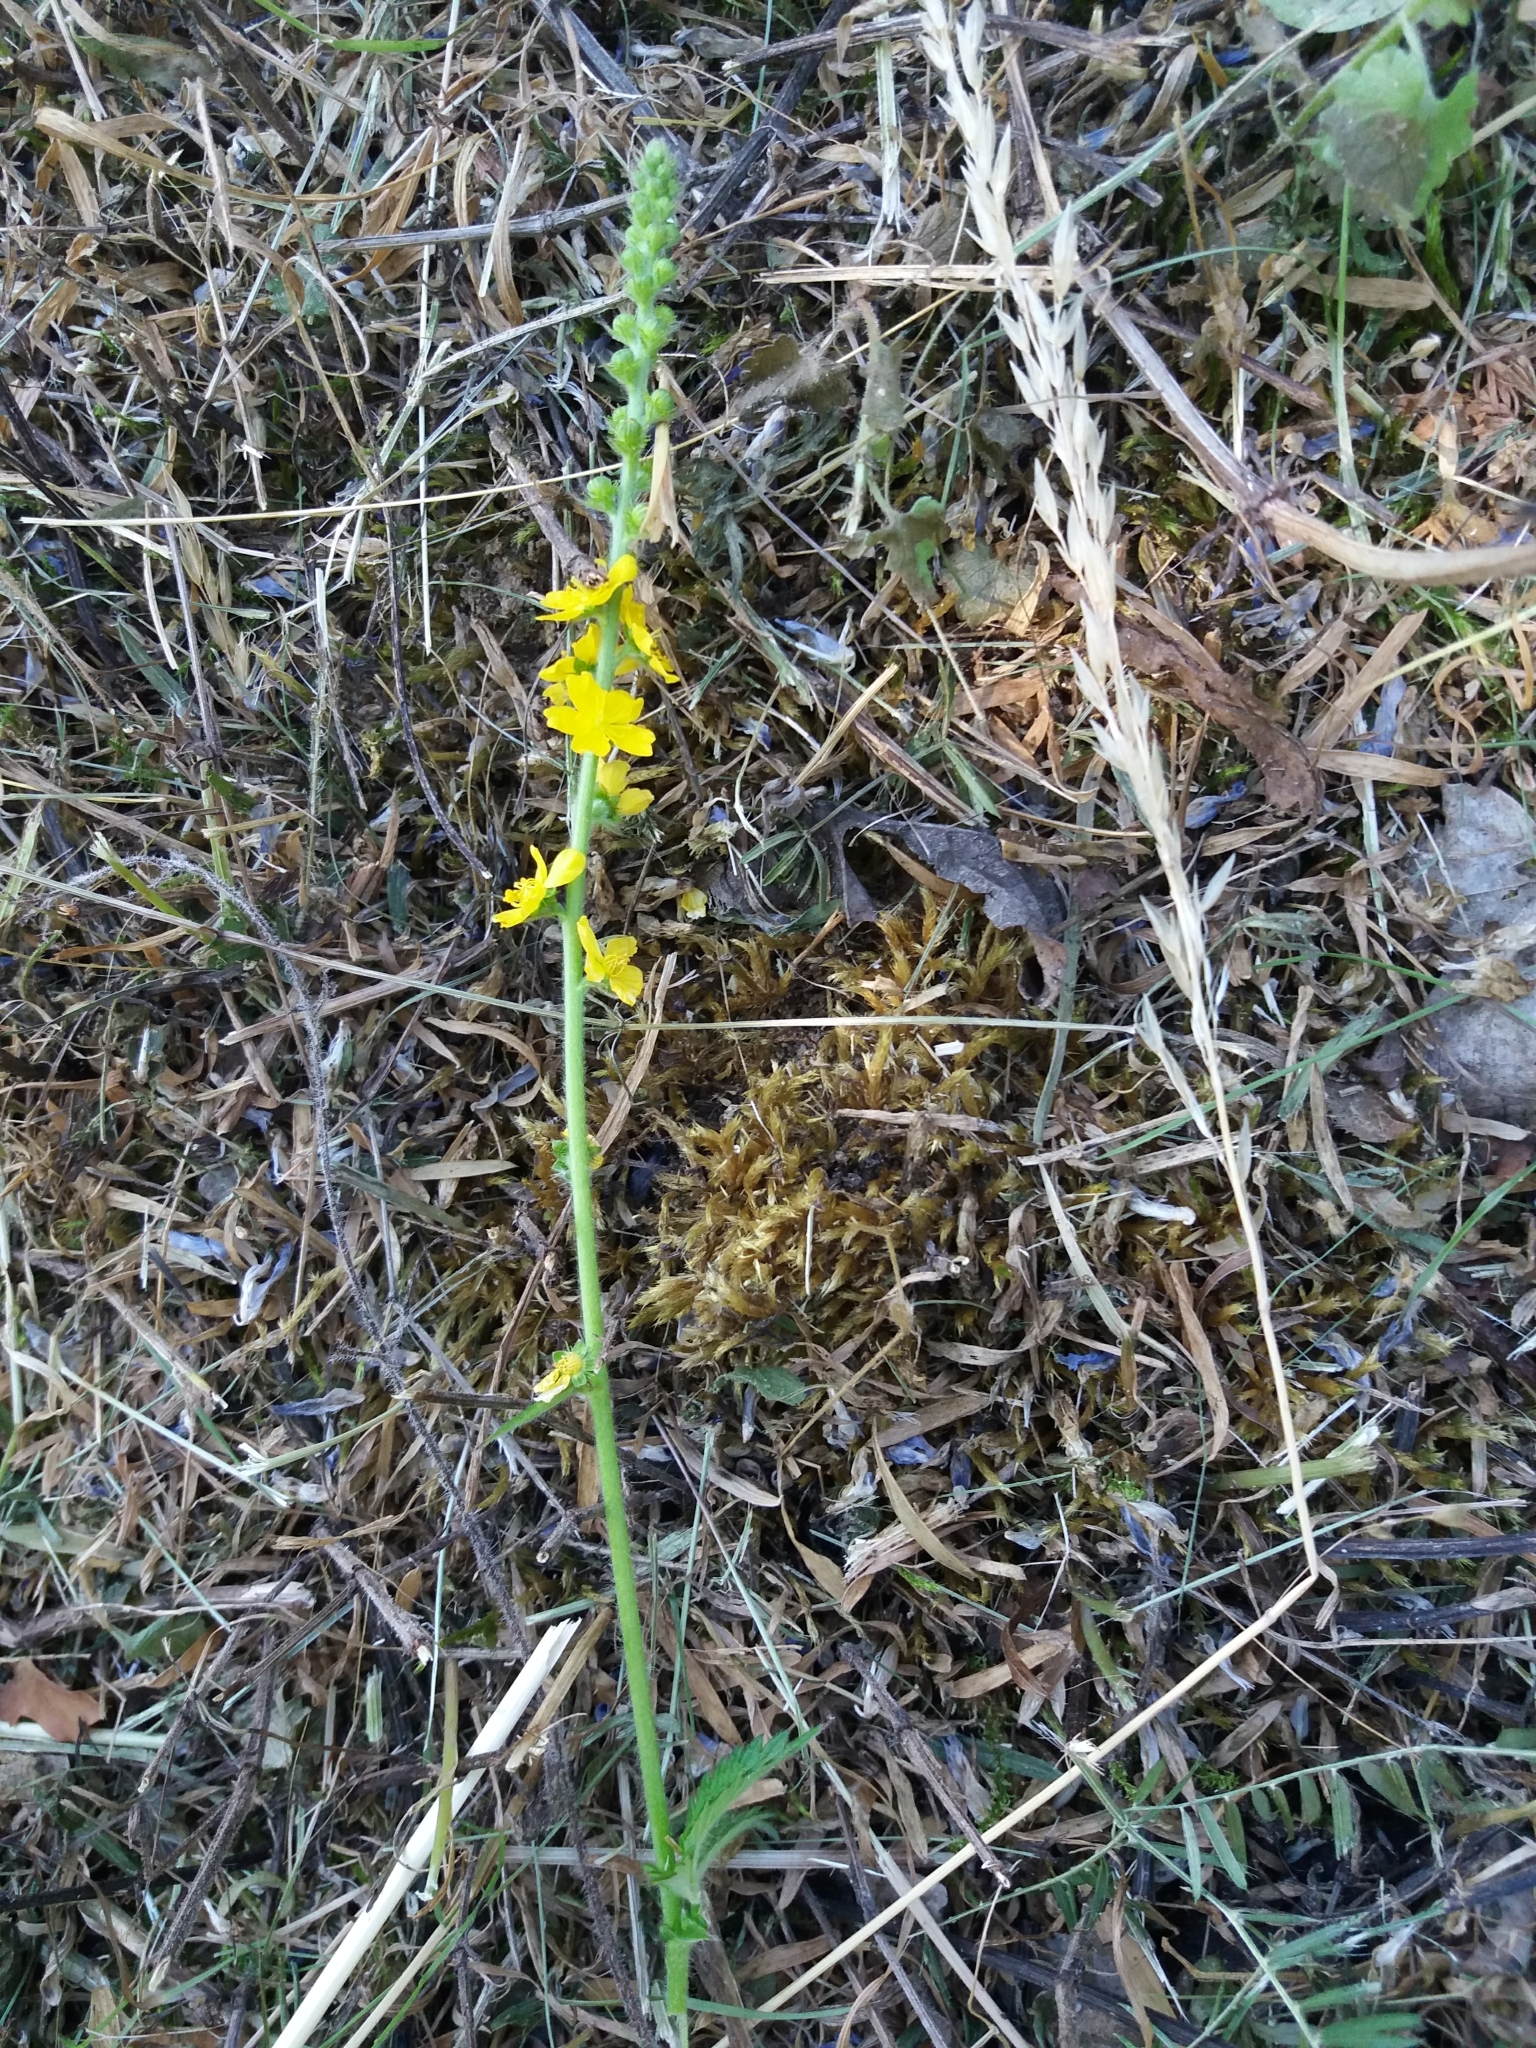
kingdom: Plantae
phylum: Tracheophyta
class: Magnoliopsida
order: Rosales
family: Rosaceae
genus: Agrimonia
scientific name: Agrimonia eupatoria
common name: Agrimony
